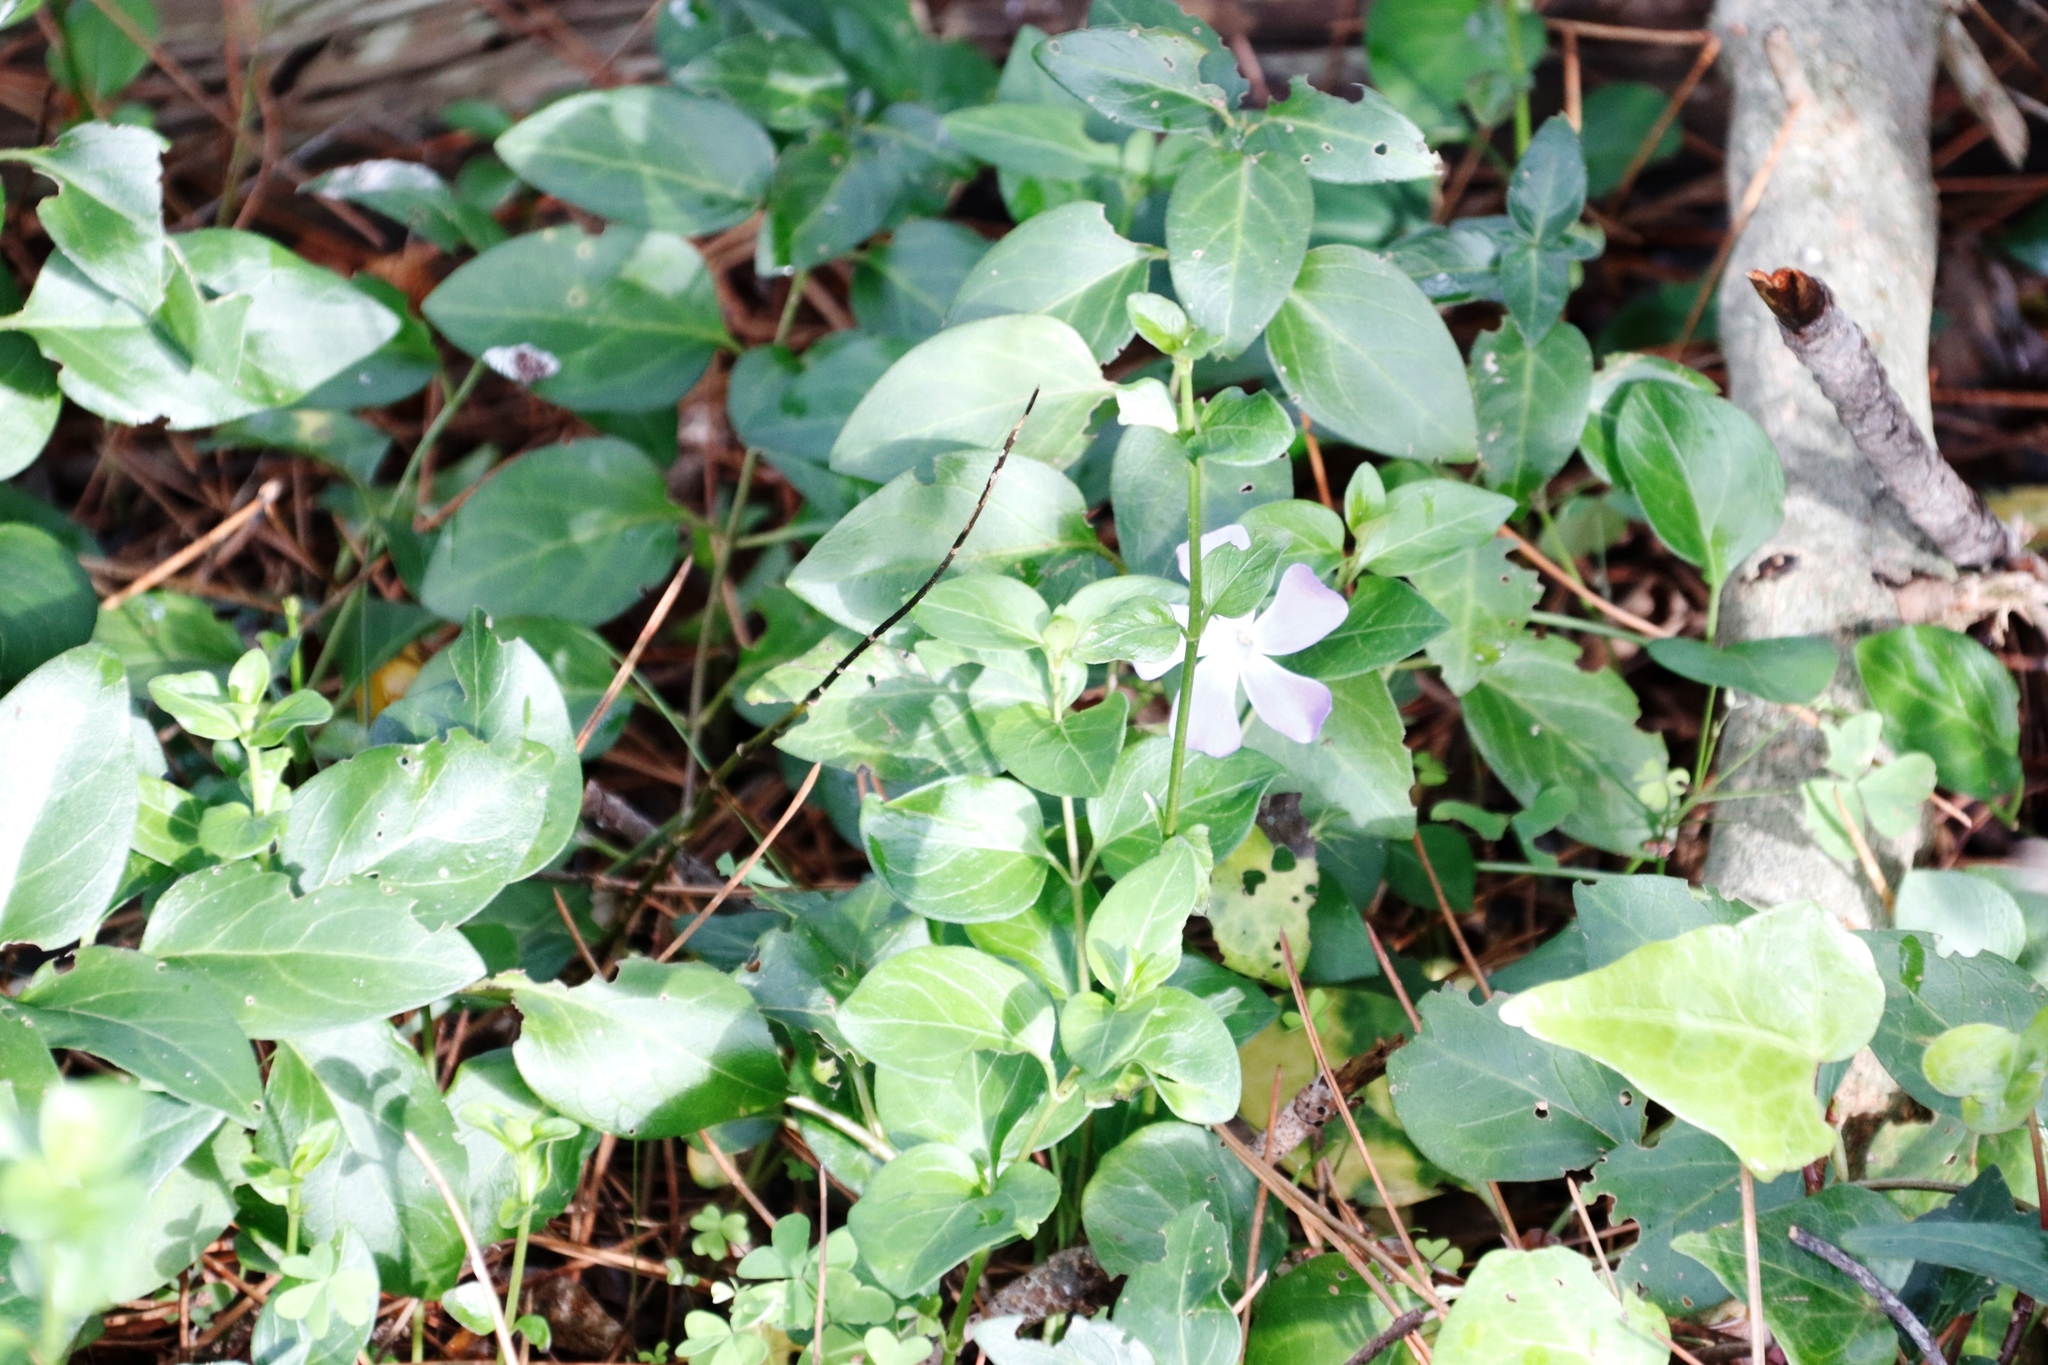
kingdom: Plantae
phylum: Tracheophyta
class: Magnoliopsida
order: Gentianales
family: Apocynaceae
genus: Vinca
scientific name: Vinca major
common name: Greater periwinkle
